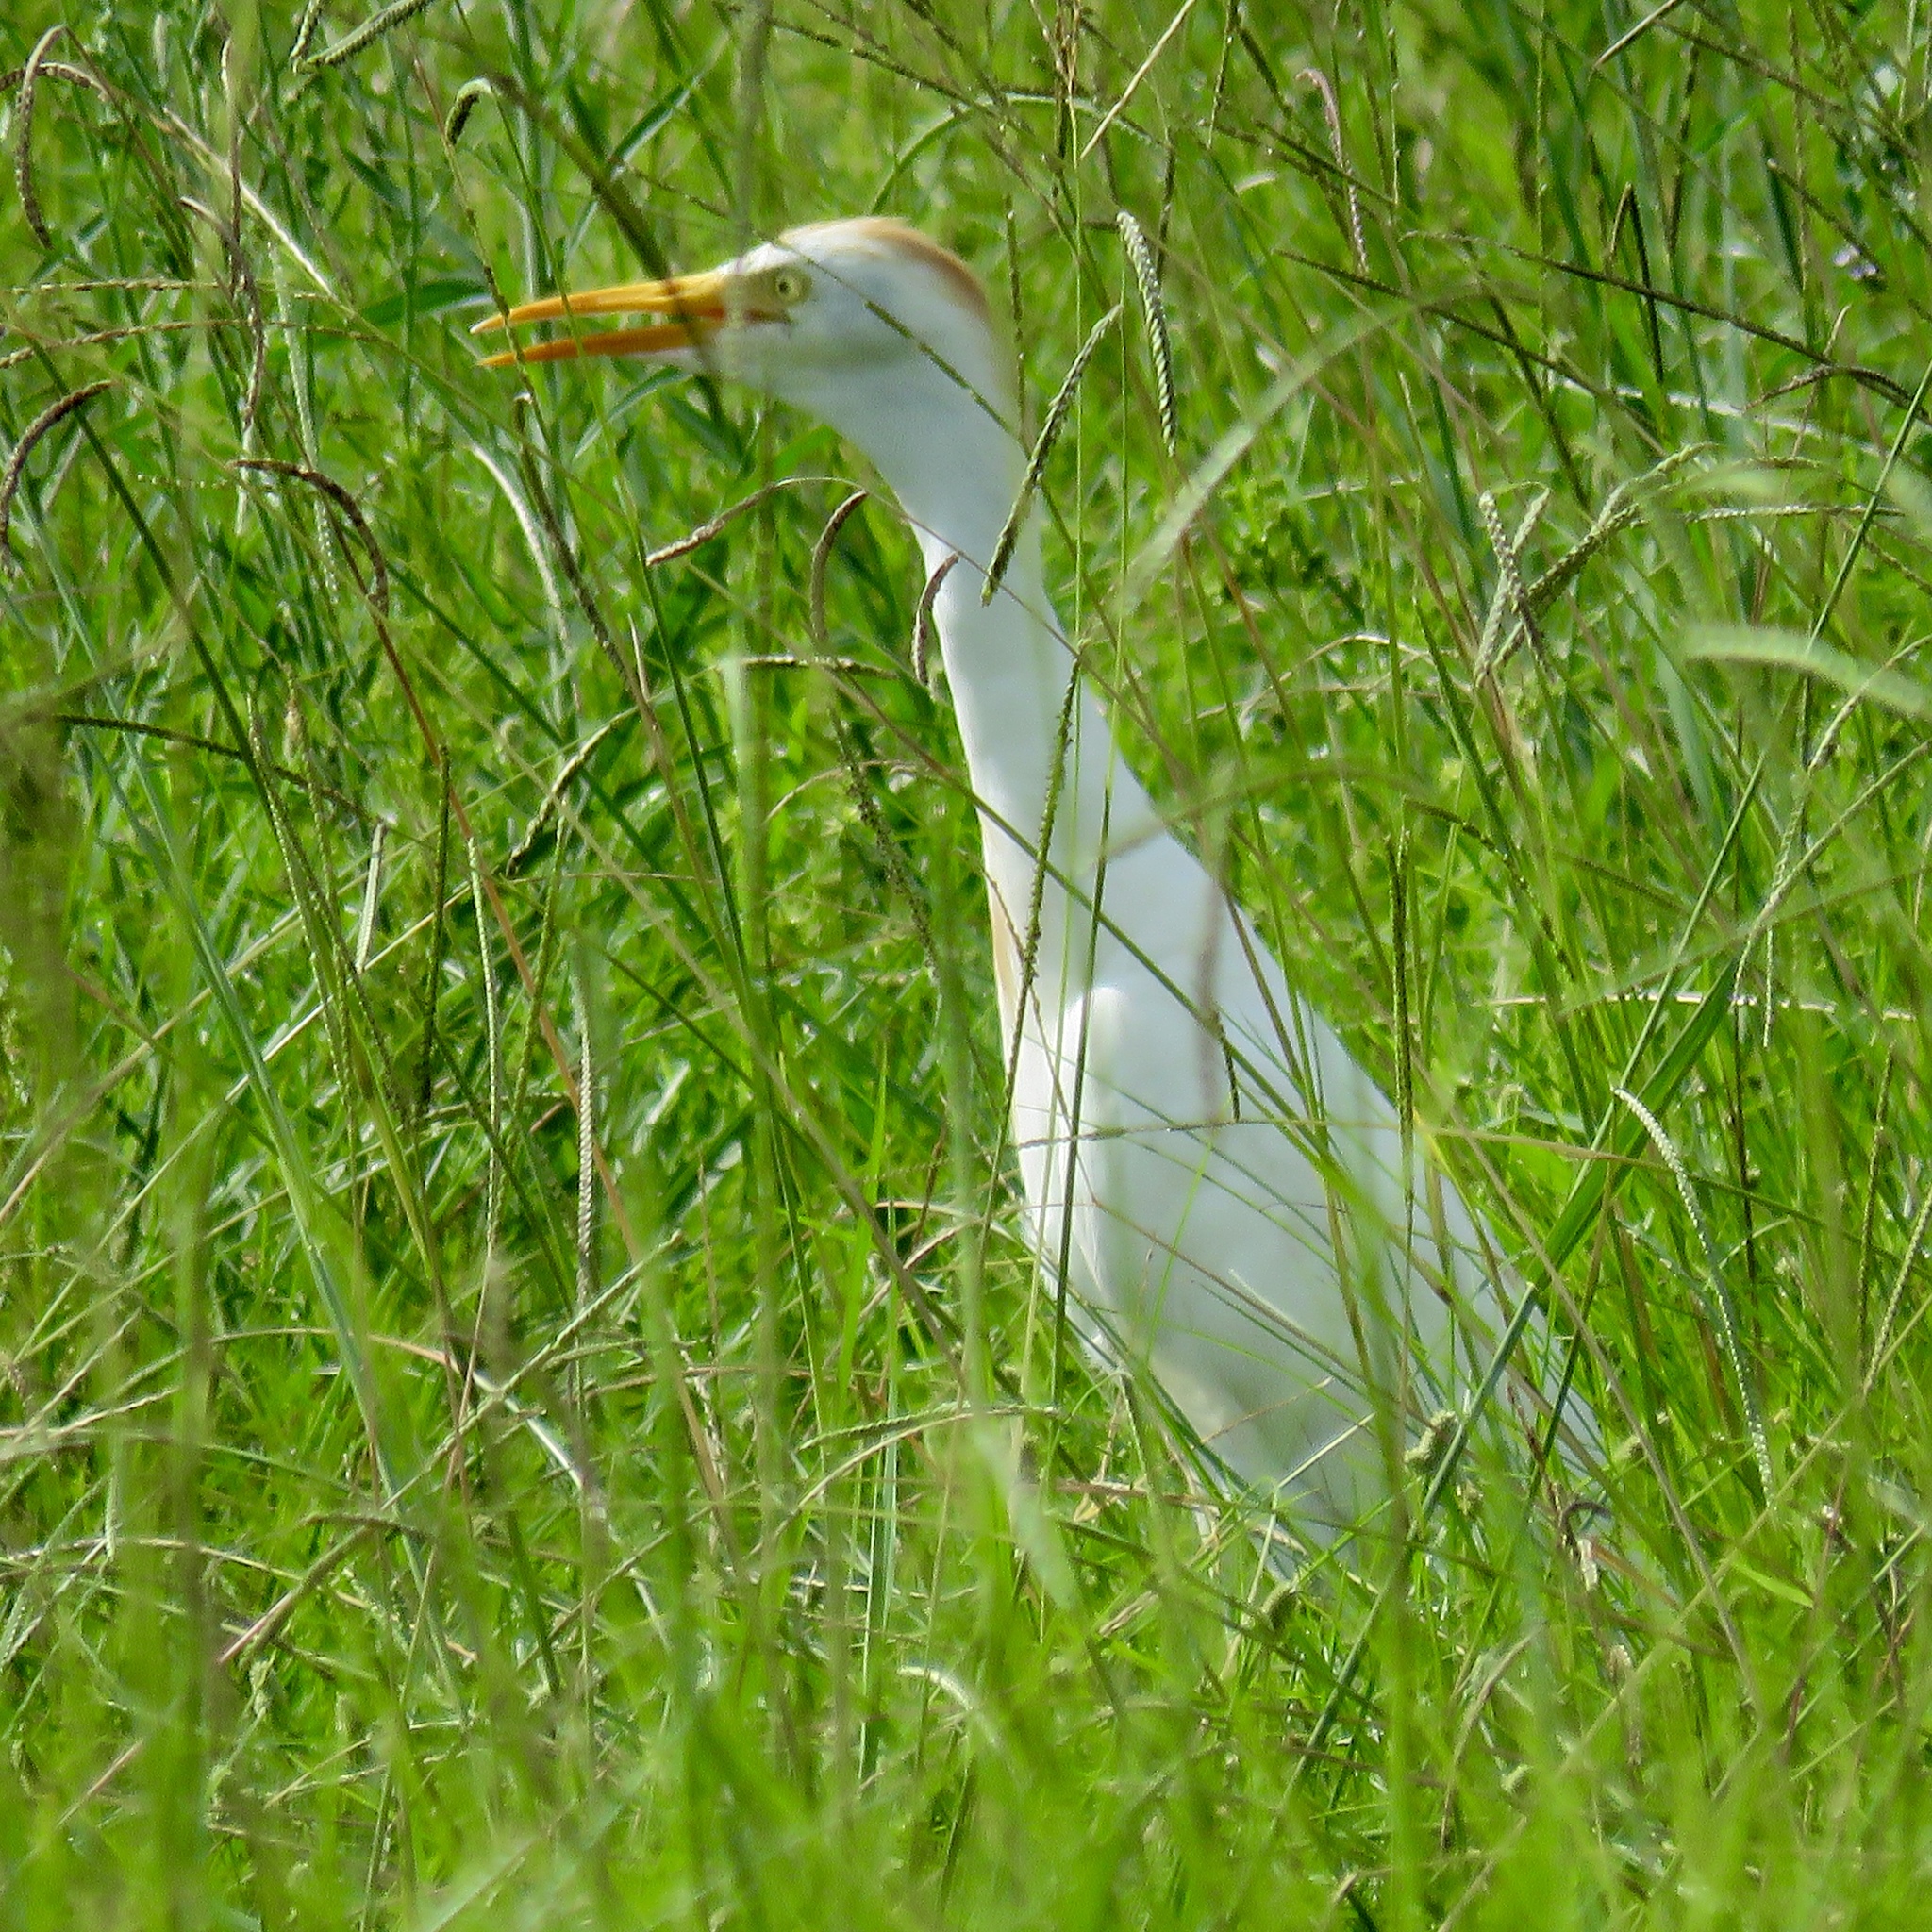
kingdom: Animalia
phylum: Chordata
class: Aves
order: Pelecaniformes
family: Ardeidae
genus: Bubulcus
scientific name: Bubulcus ibis
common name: Cattle egret
